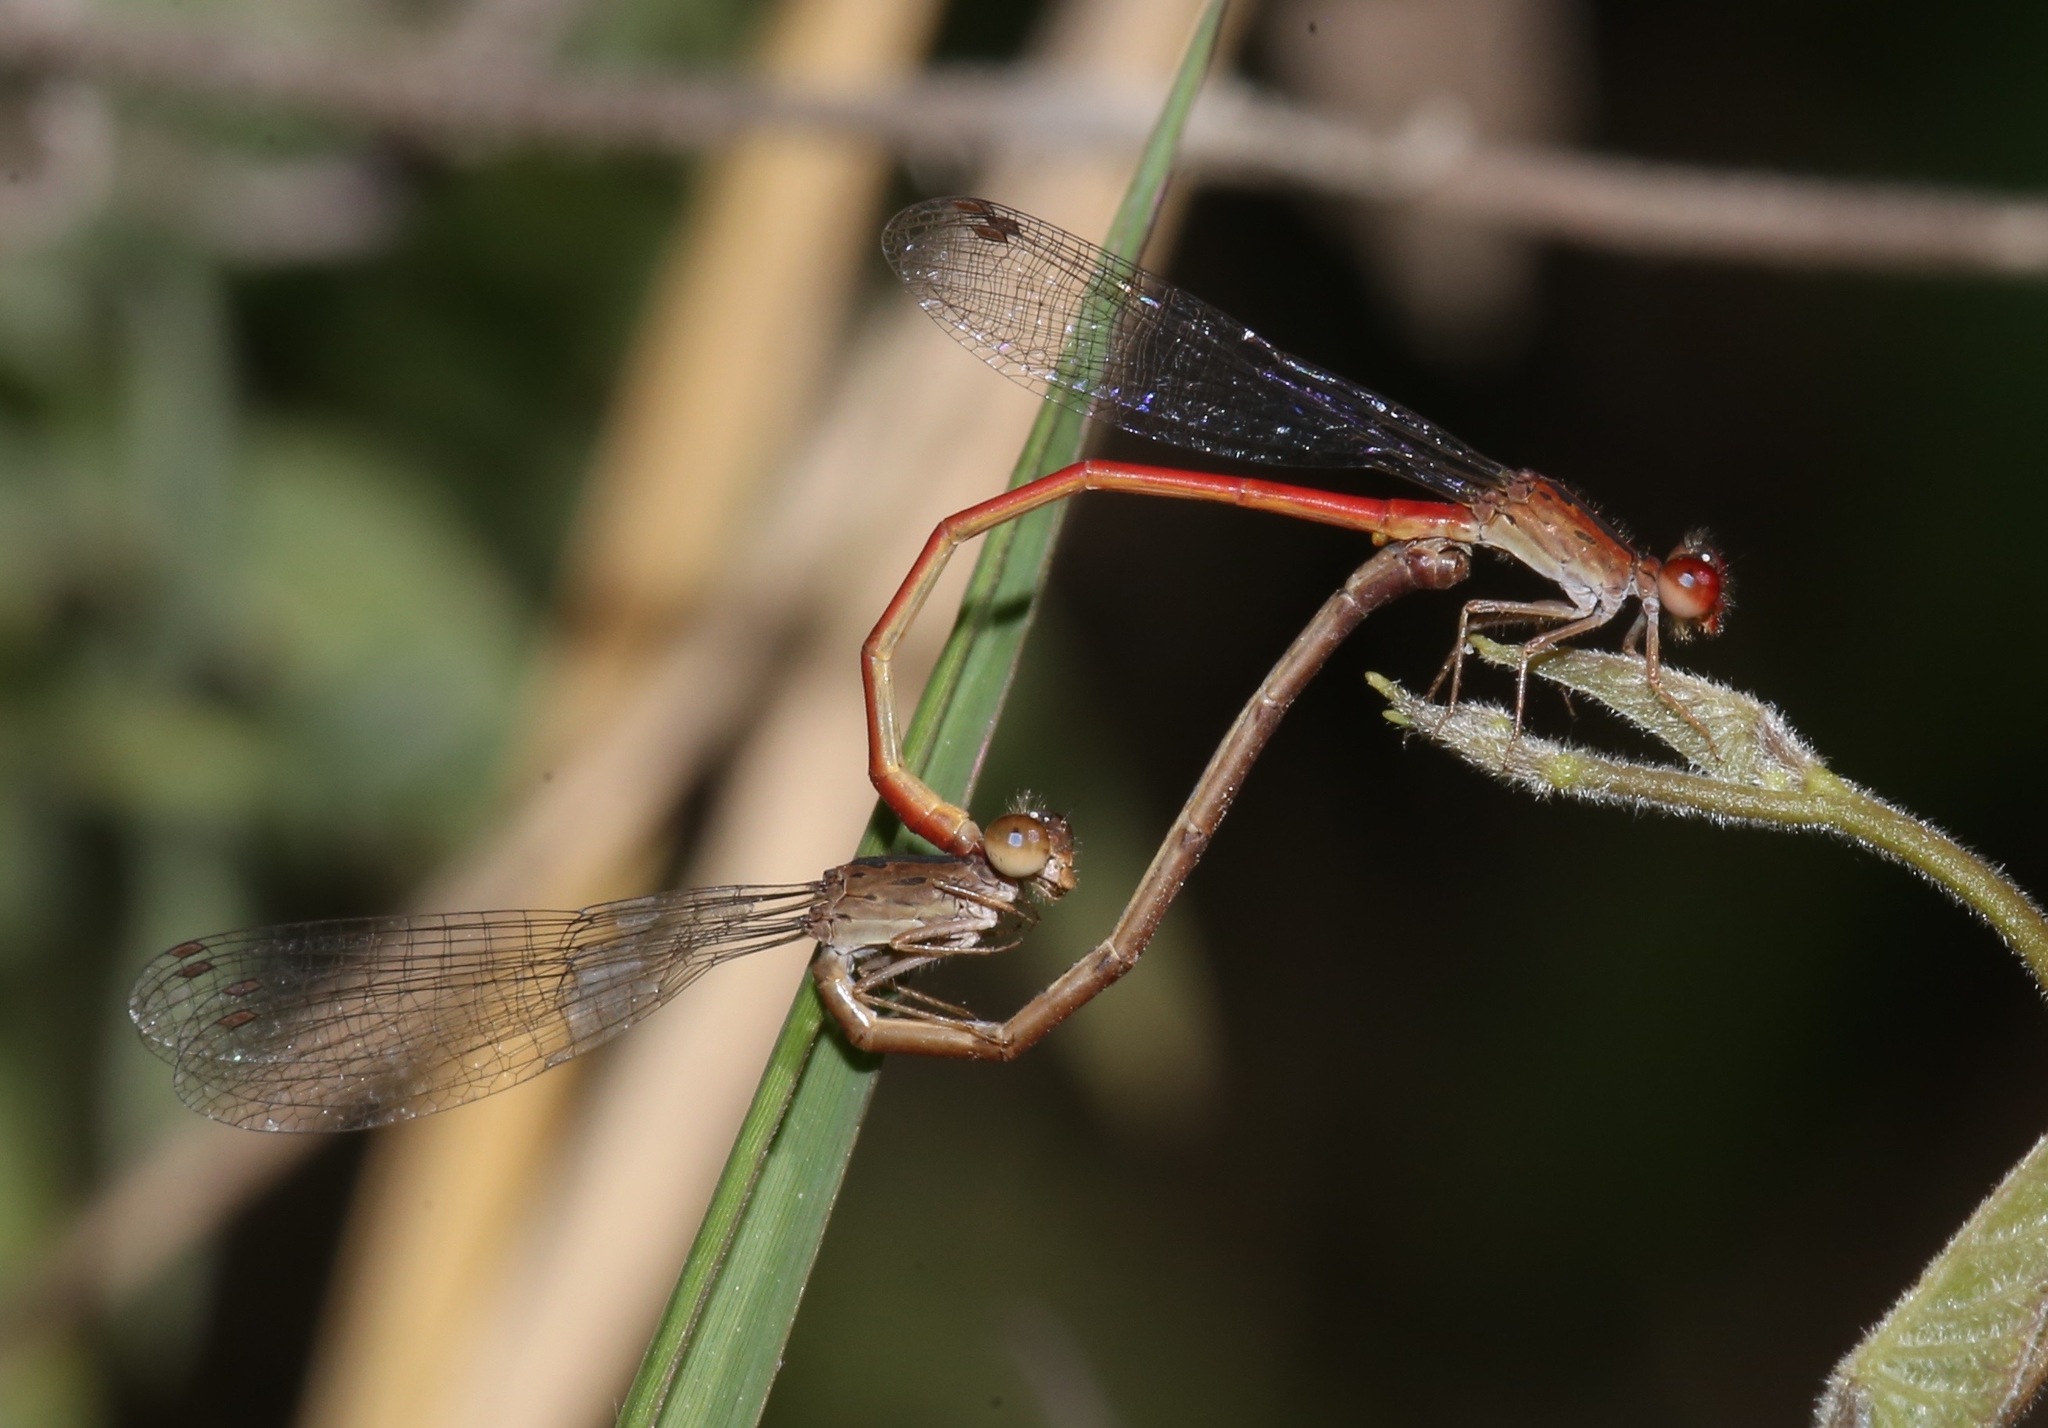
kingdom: Animalia
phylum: Arthropoda
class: Insecta
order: Odonata
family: Coenagrionidae
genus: Telebasis
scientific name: Telebasis salva
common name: Desert firetail
